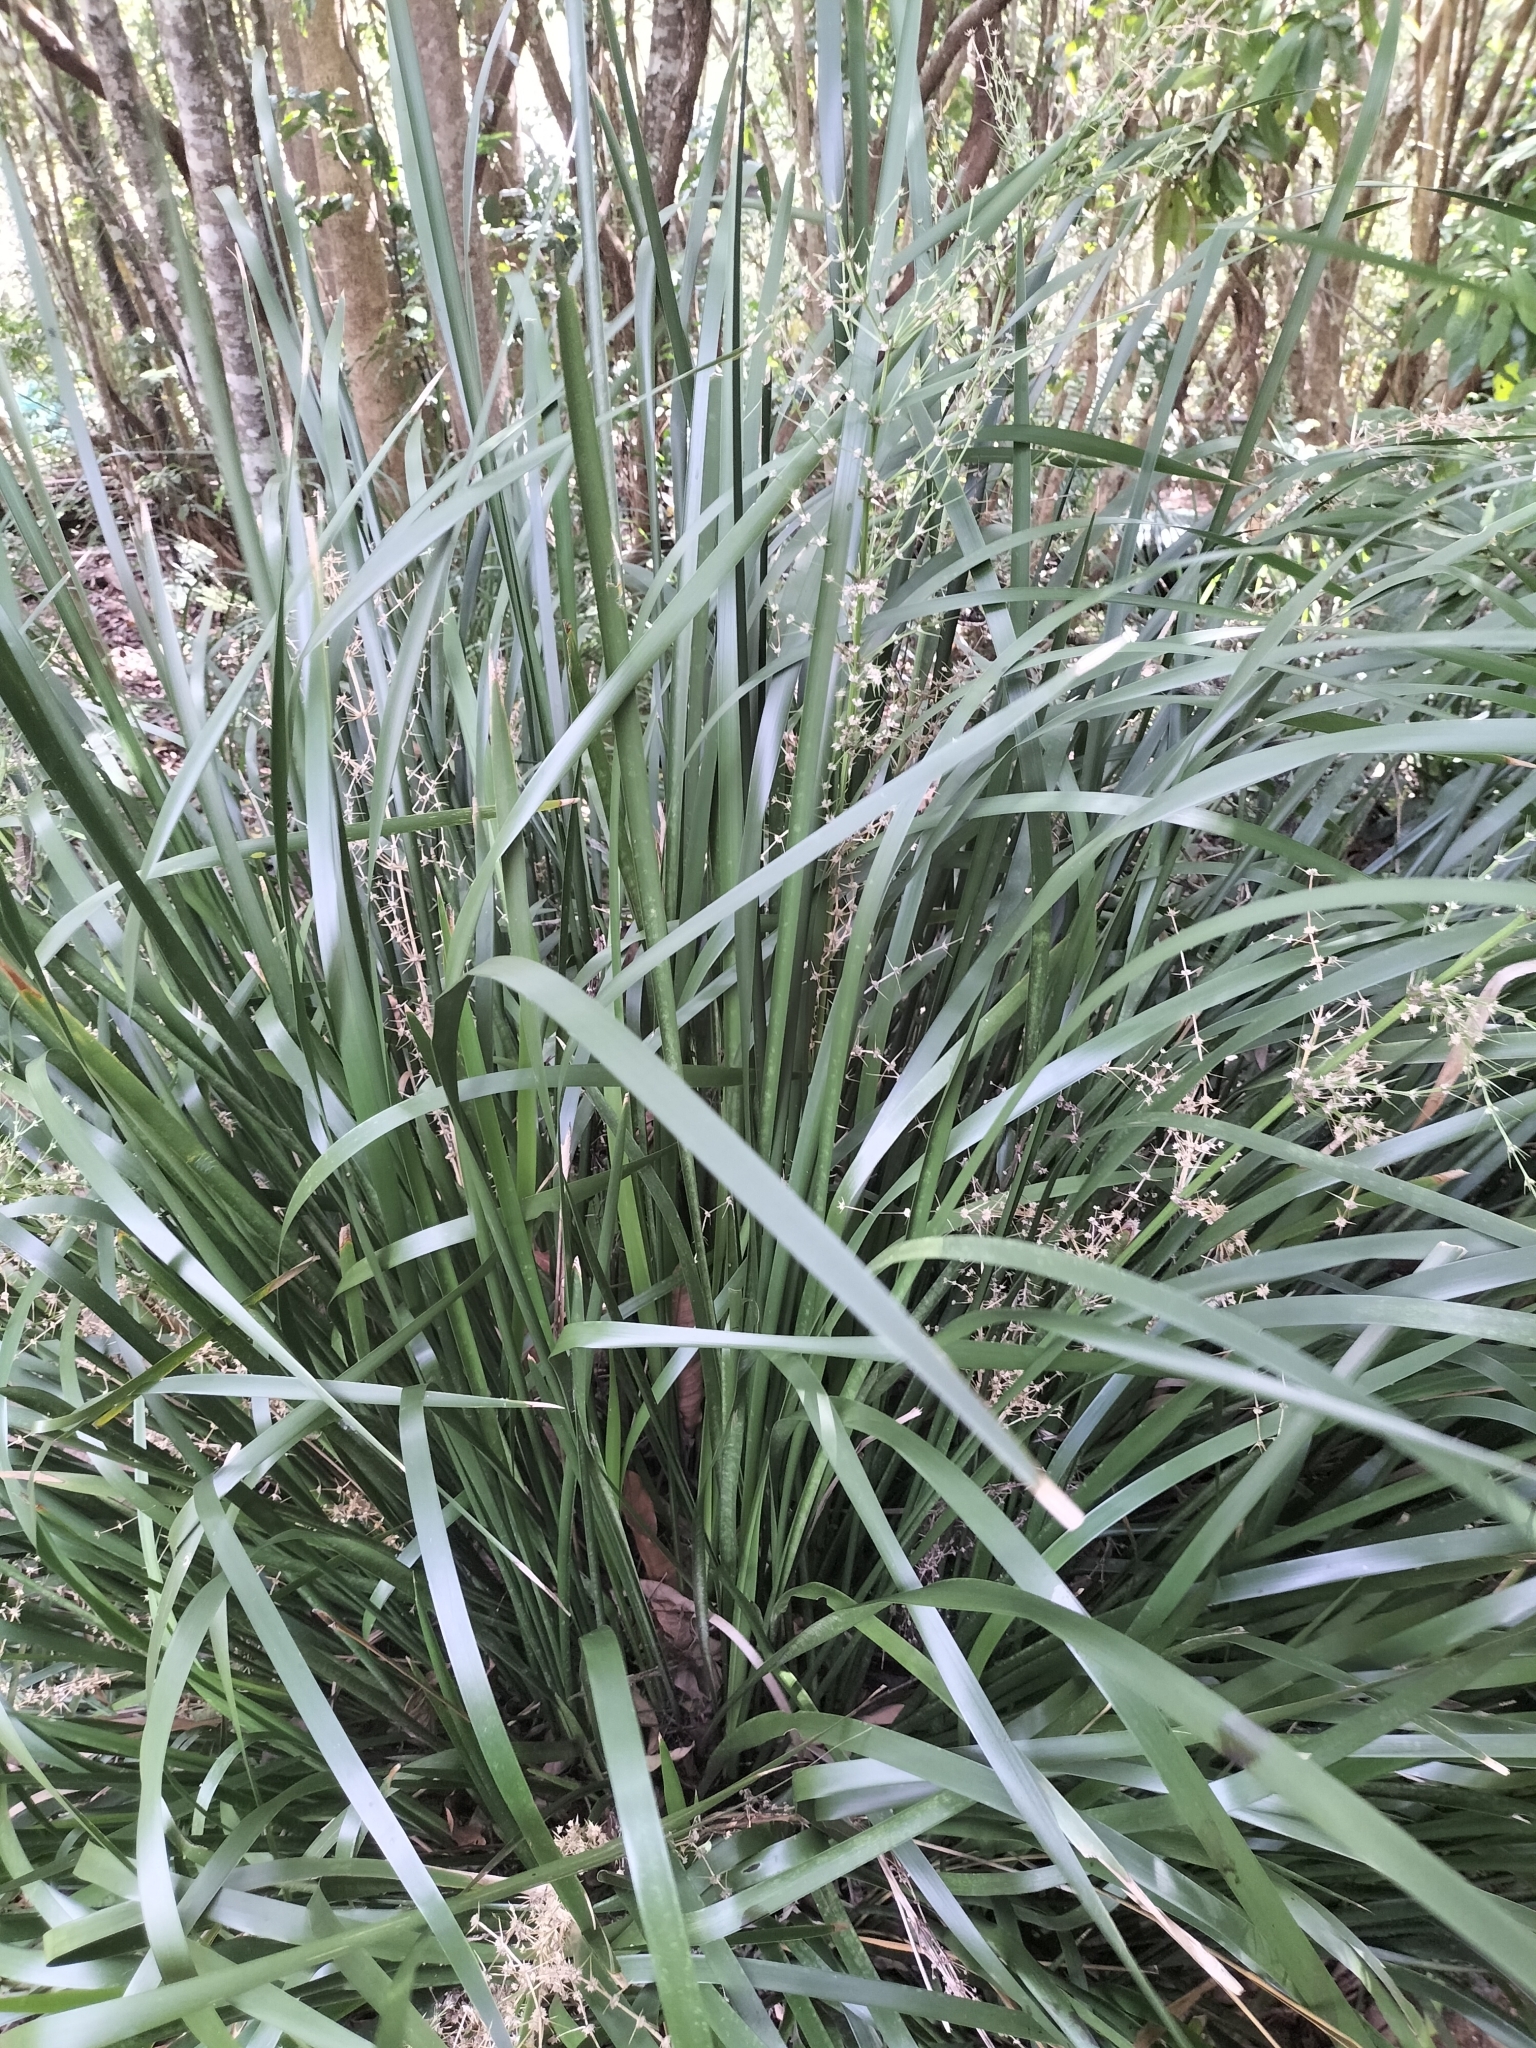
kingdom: Plantae
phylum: Tracheophyta
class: Liliopsida
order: Asparagales
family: Asparagaceae
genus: Lomandra
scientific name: Lomandra hystrix
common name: Creek mat-rush
